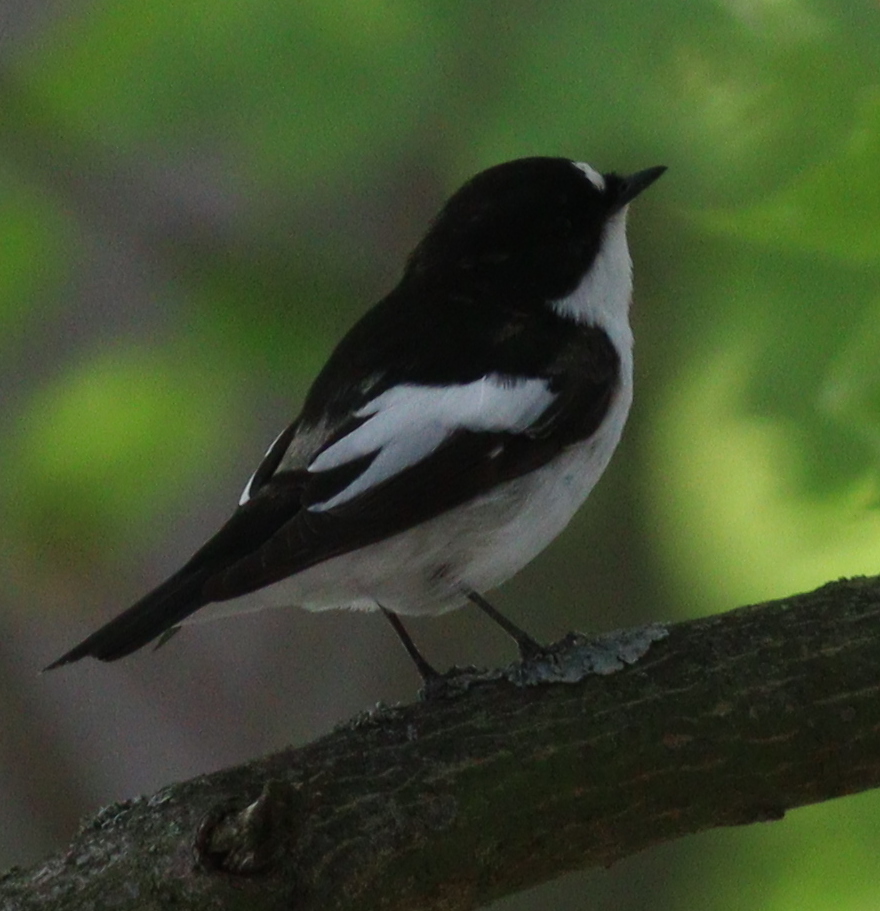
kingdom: Animalia
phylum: Chordata
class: Aves
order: Passeriformes
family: Muscicapidae
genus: Ficedula
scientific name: Ficedula hypoleuca
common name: European pied flycatcher
